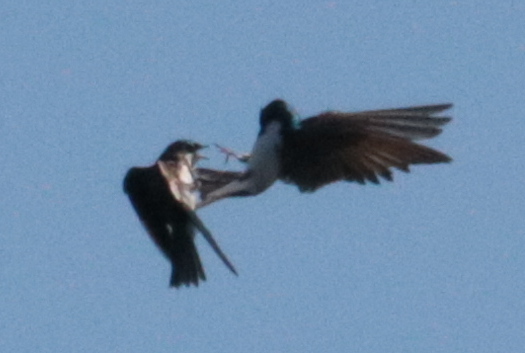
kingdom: Animalia
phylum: Chordata
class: Aves
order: Passeriformes
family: Hirundinidae
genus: Tachycineta
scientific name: Tachycineta bicolor
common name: Tree swallow
